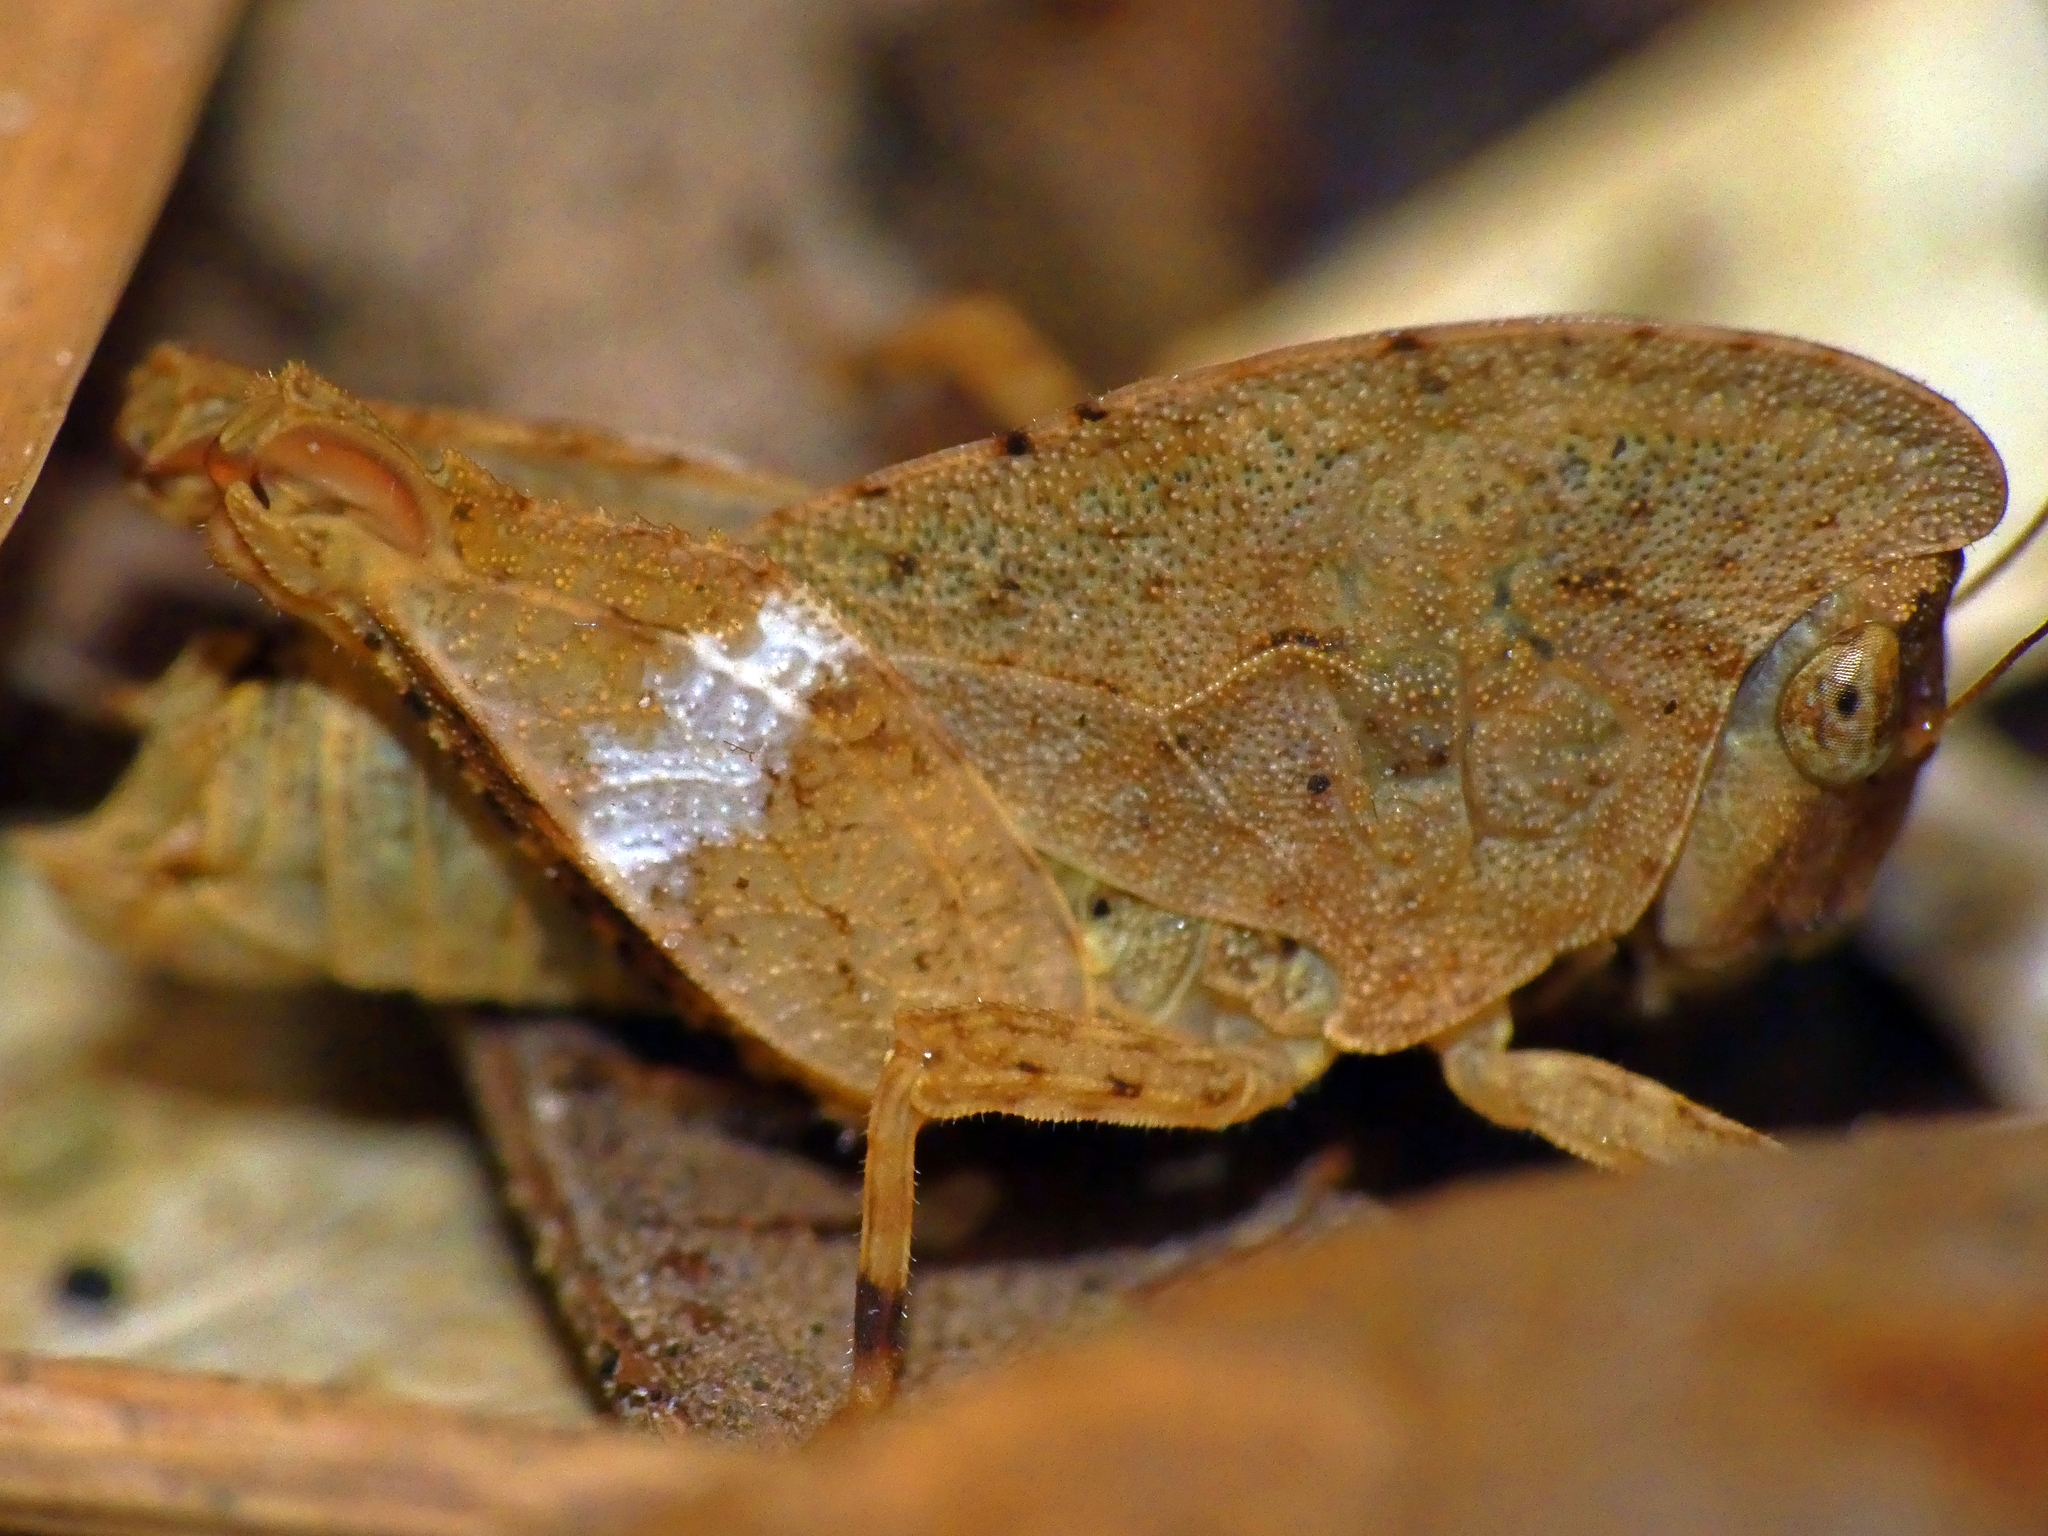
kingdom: Animalia
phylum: Arthropoda
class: Insecta
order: Orthoptera
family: Tetrigidae
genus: Selivinga
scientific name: Selivinga tribulata
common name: Tribulation helmed groundhopper
